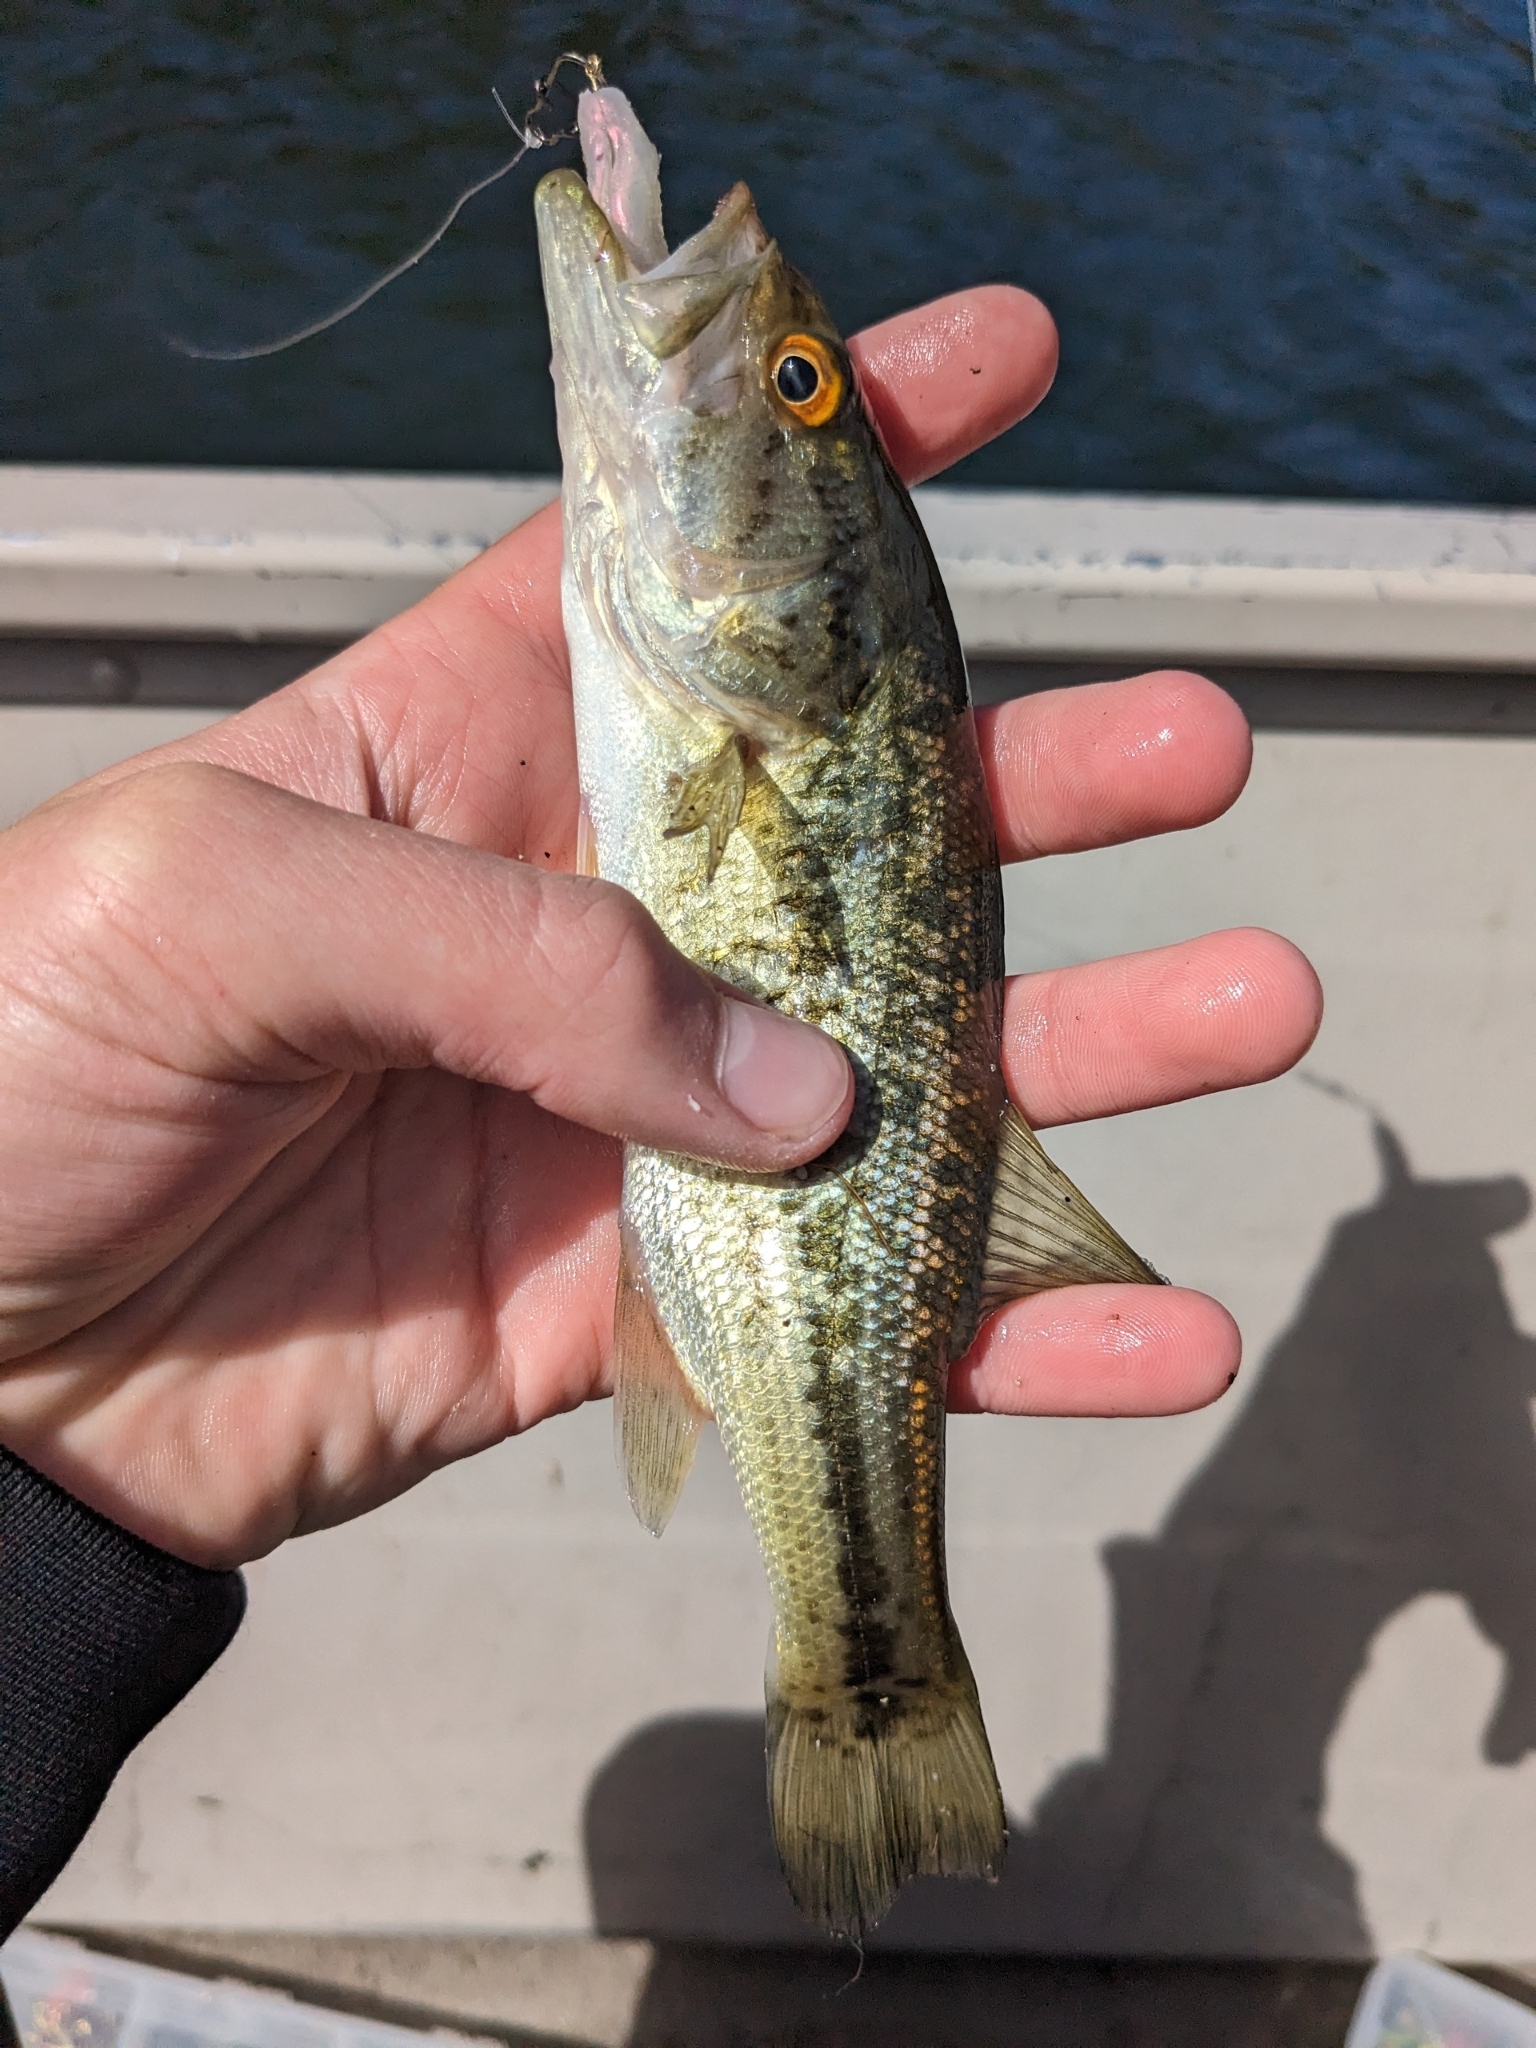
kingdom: Animalia
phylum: Chordata
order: Perciformes
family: Centrarchidae
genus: Micropterus
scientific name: Micropterus
